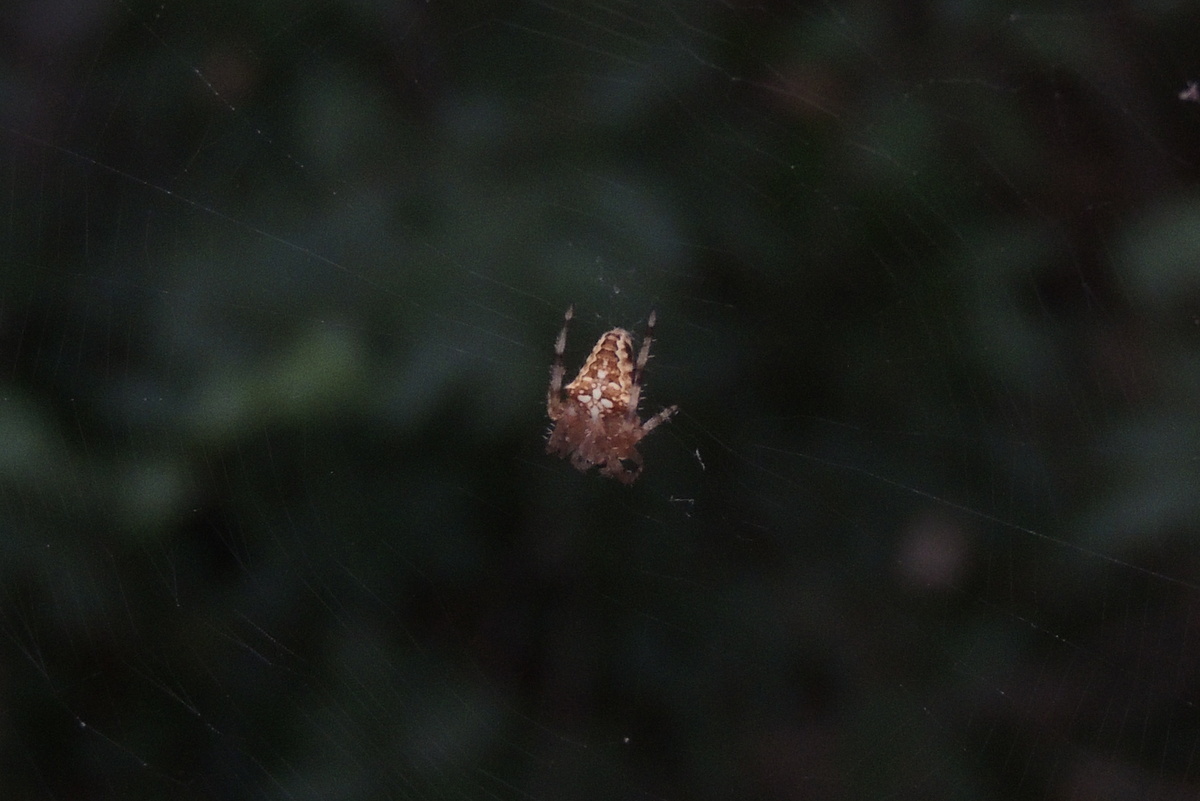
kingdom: Animalia
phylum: Arthropoda
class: Arachnida
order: Araneae
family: Araneidae
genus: Araneus
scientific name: Araneus diadematus
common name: Cross orbweaver
